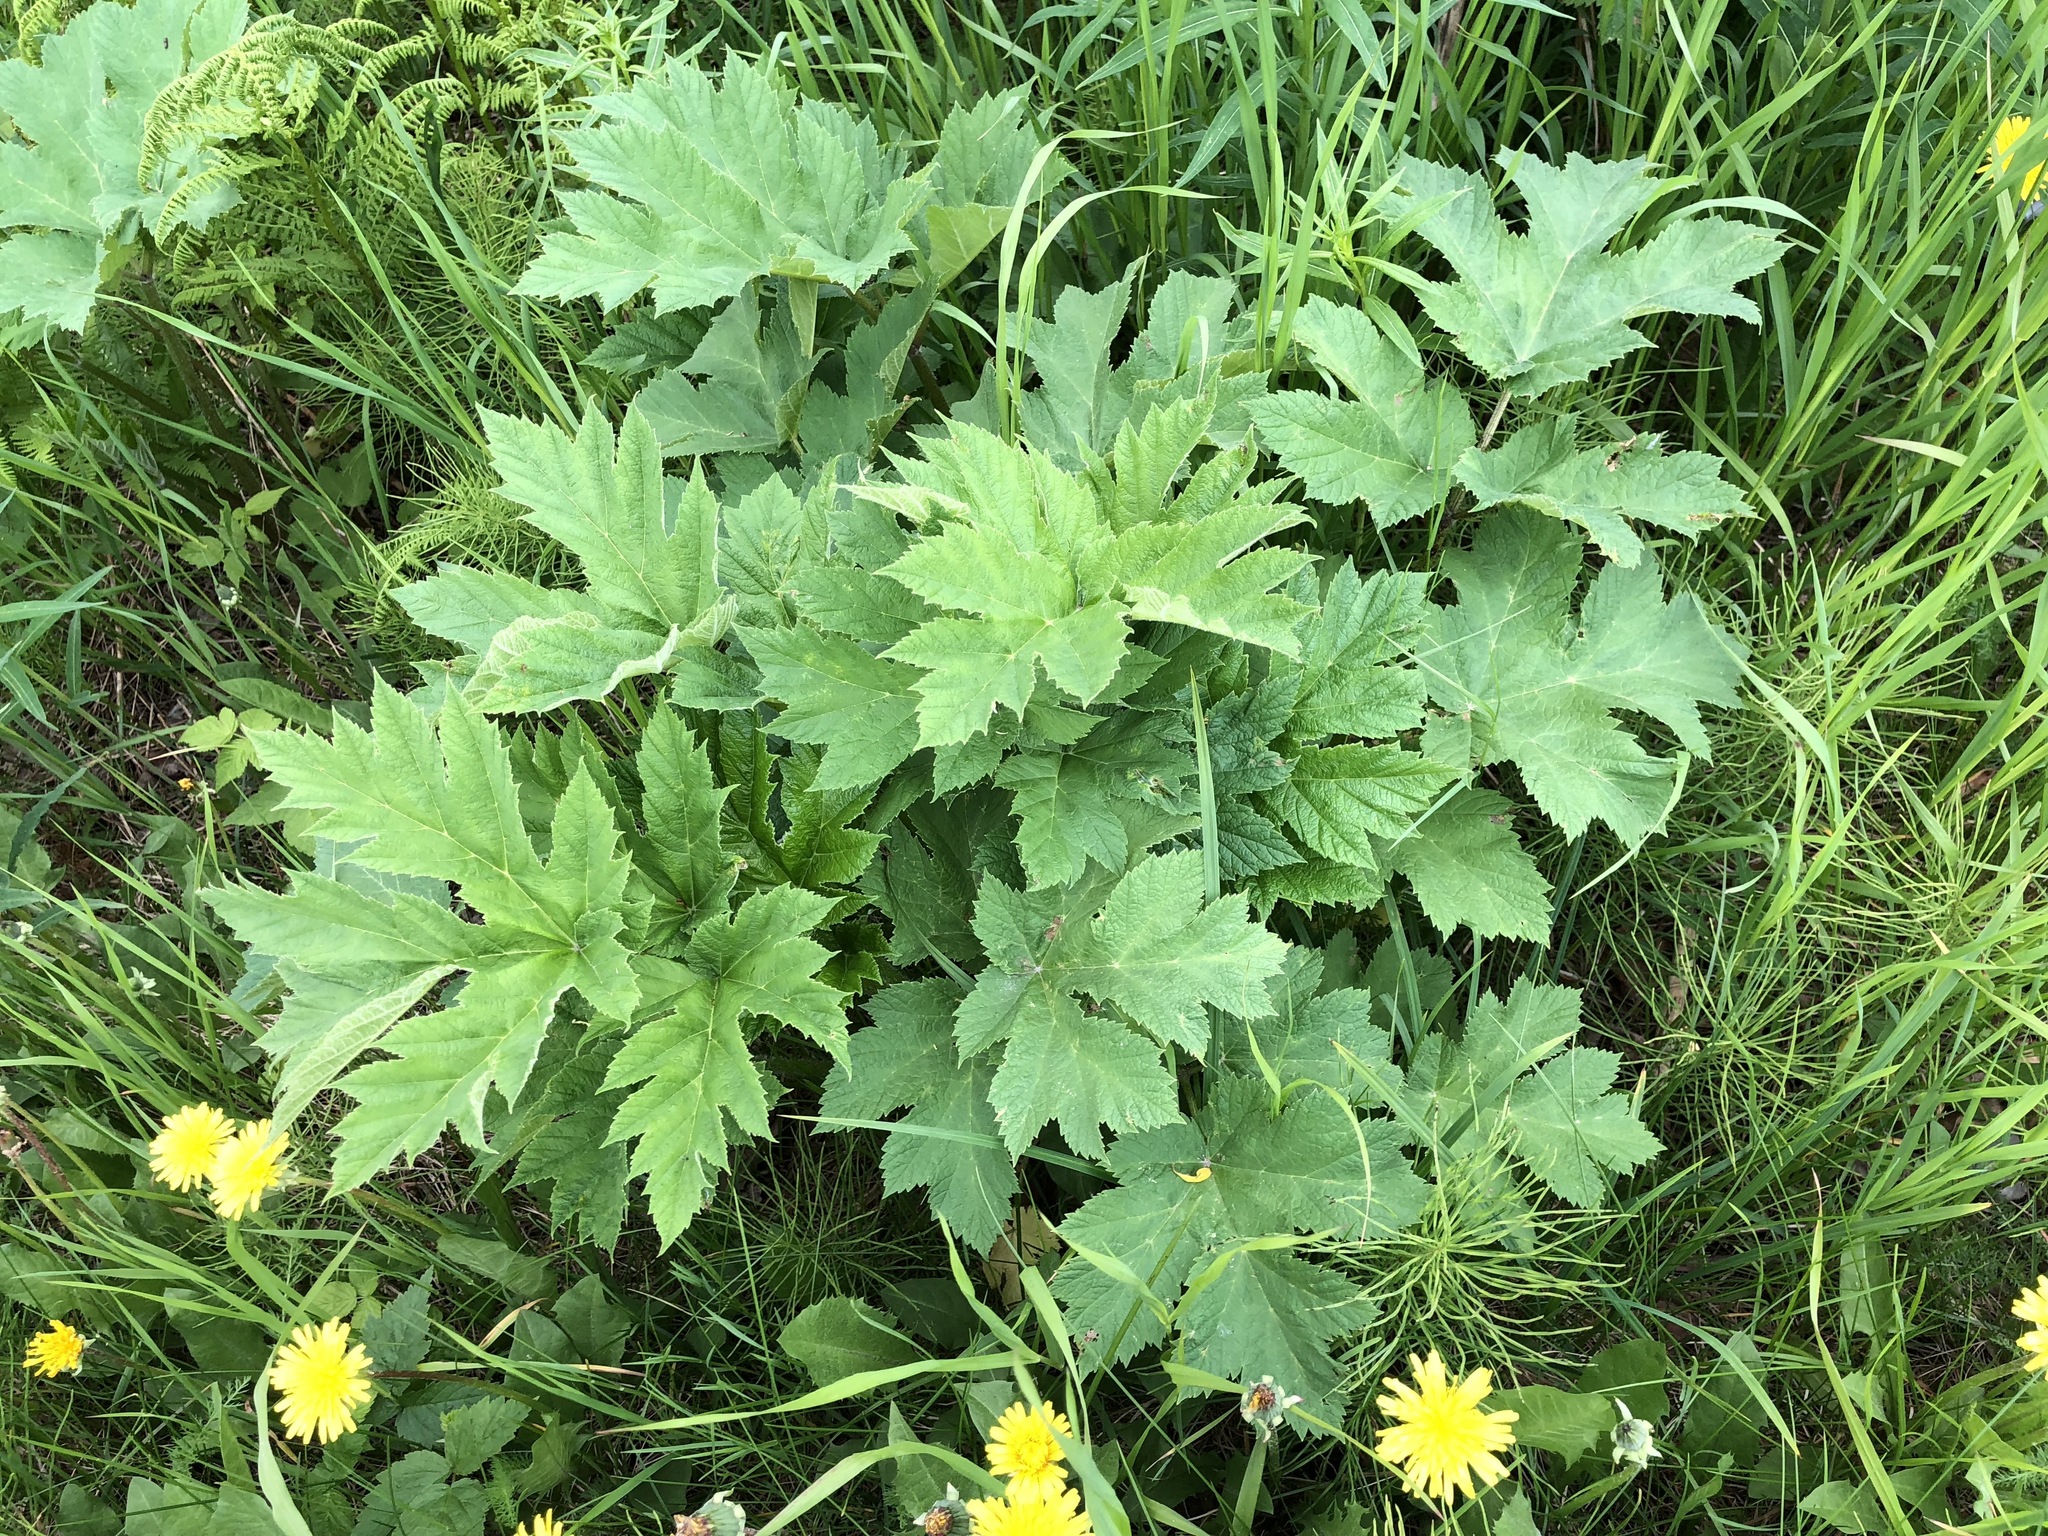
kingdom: Plantae
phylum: Tracheophyta
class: Magnoliopsida
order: Apiales
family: Apiaceae
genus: Heracleum
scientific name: Heracleum maximum
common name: American cow parsnip
